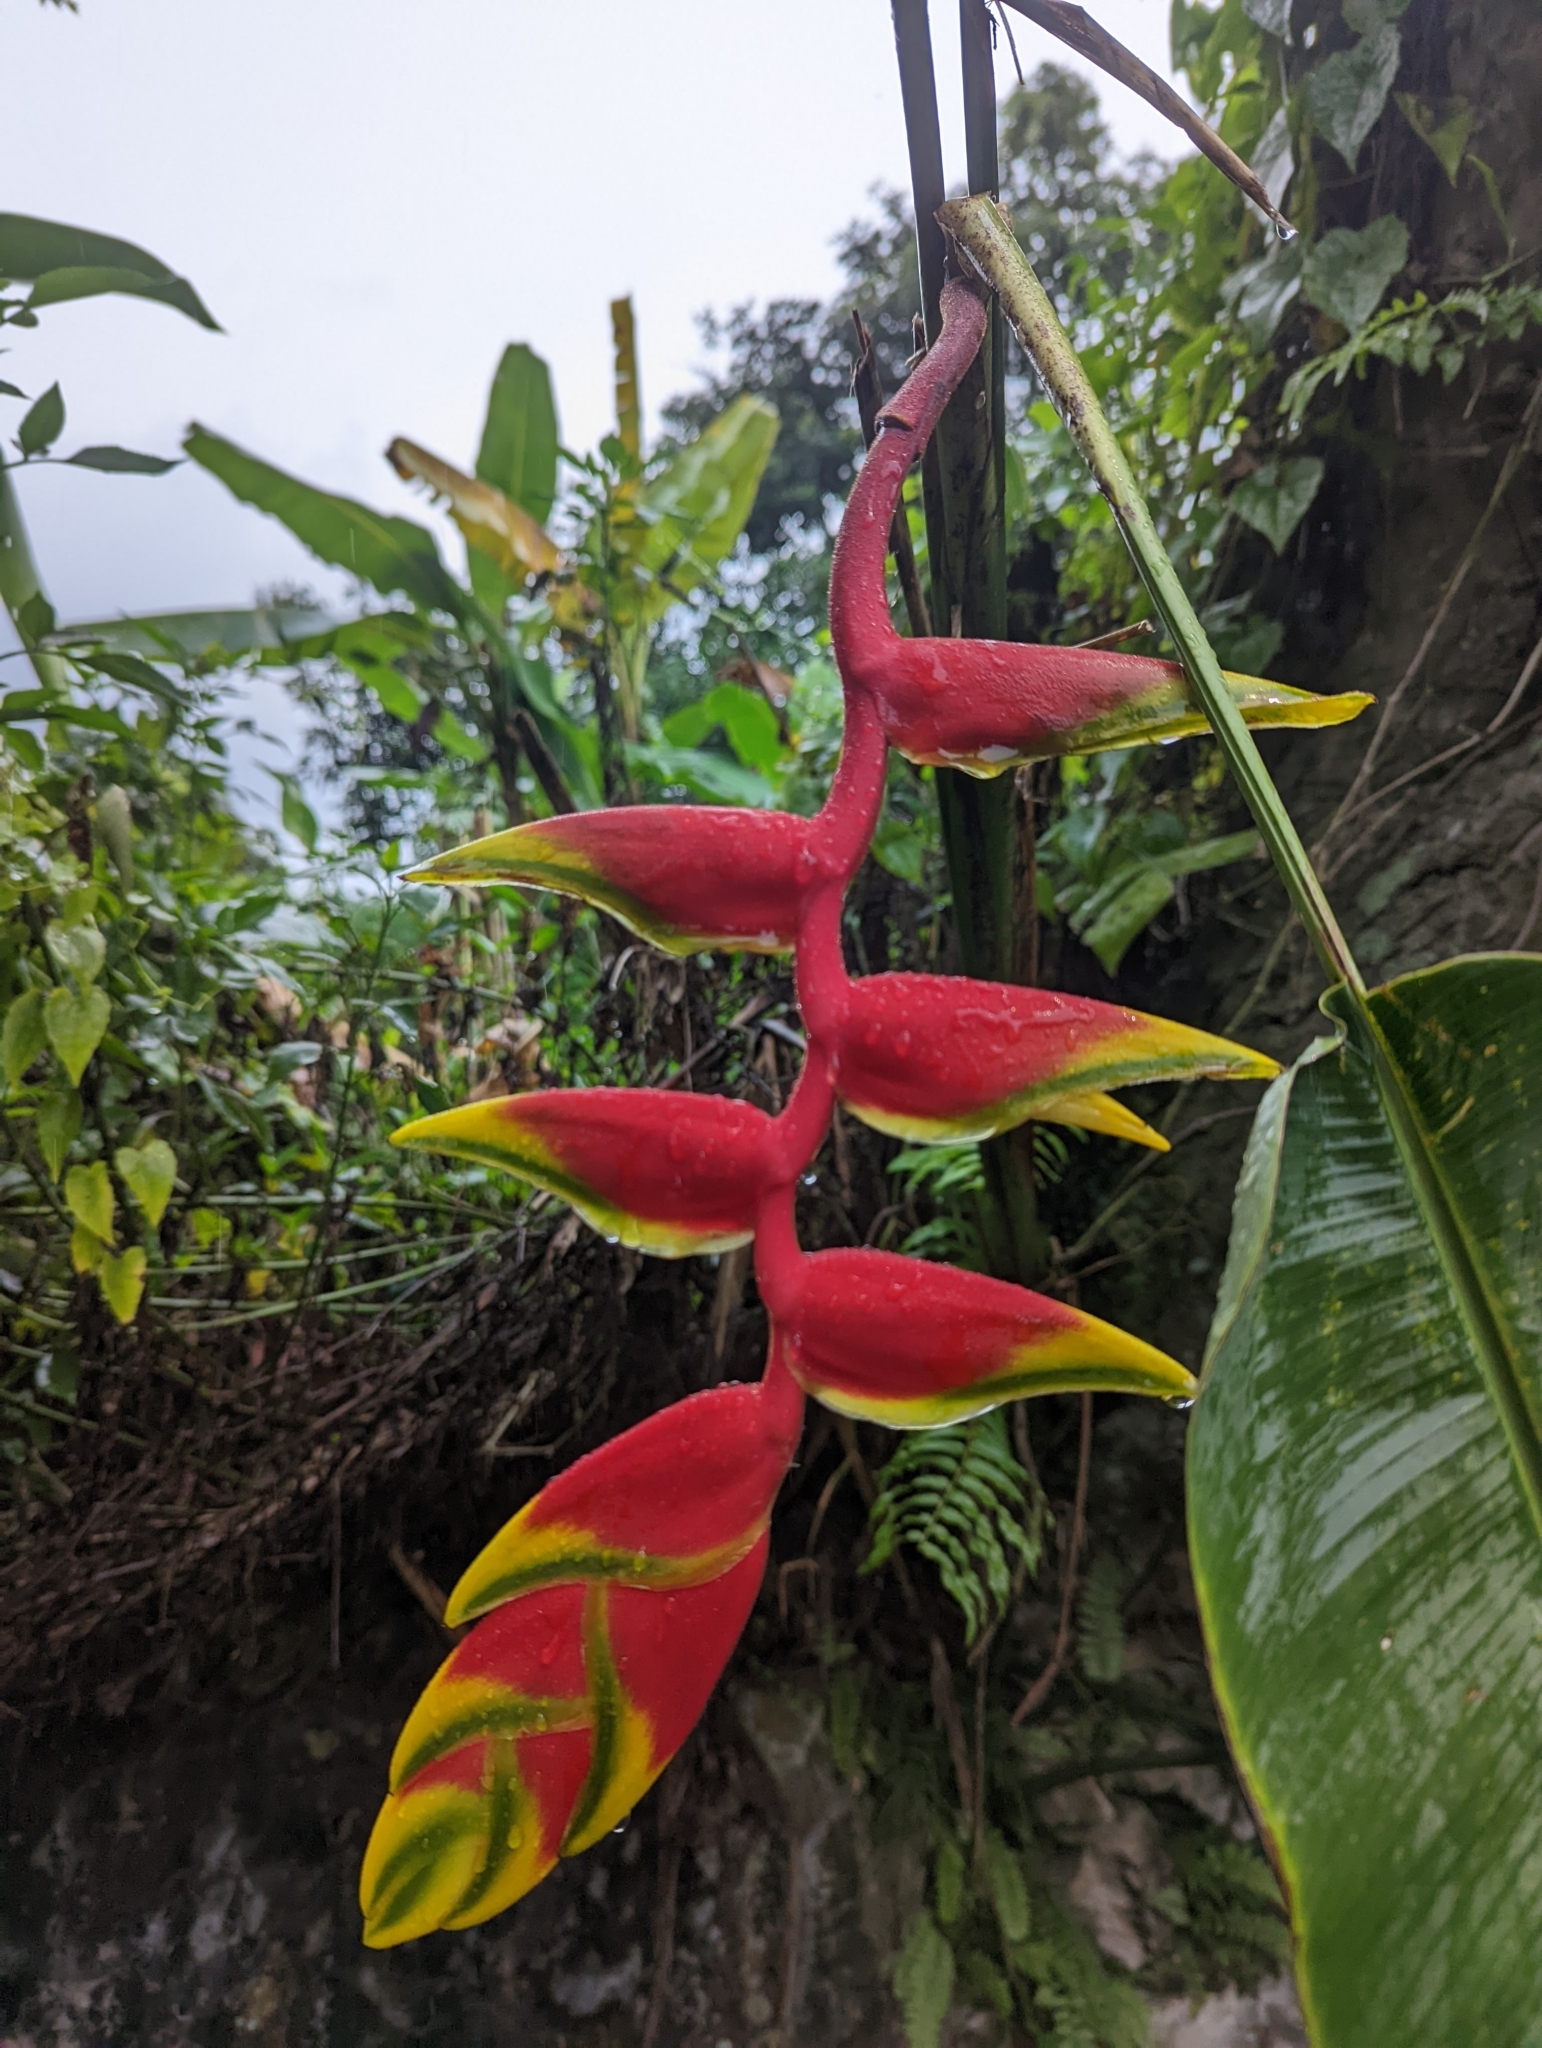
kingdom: Plantae
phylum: Tracheophyta
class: Liliopsida
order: Zingiberales
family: Heliconiaceae
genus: Heliconia
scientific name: Heliconia rostrata
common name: False bird of paradise
